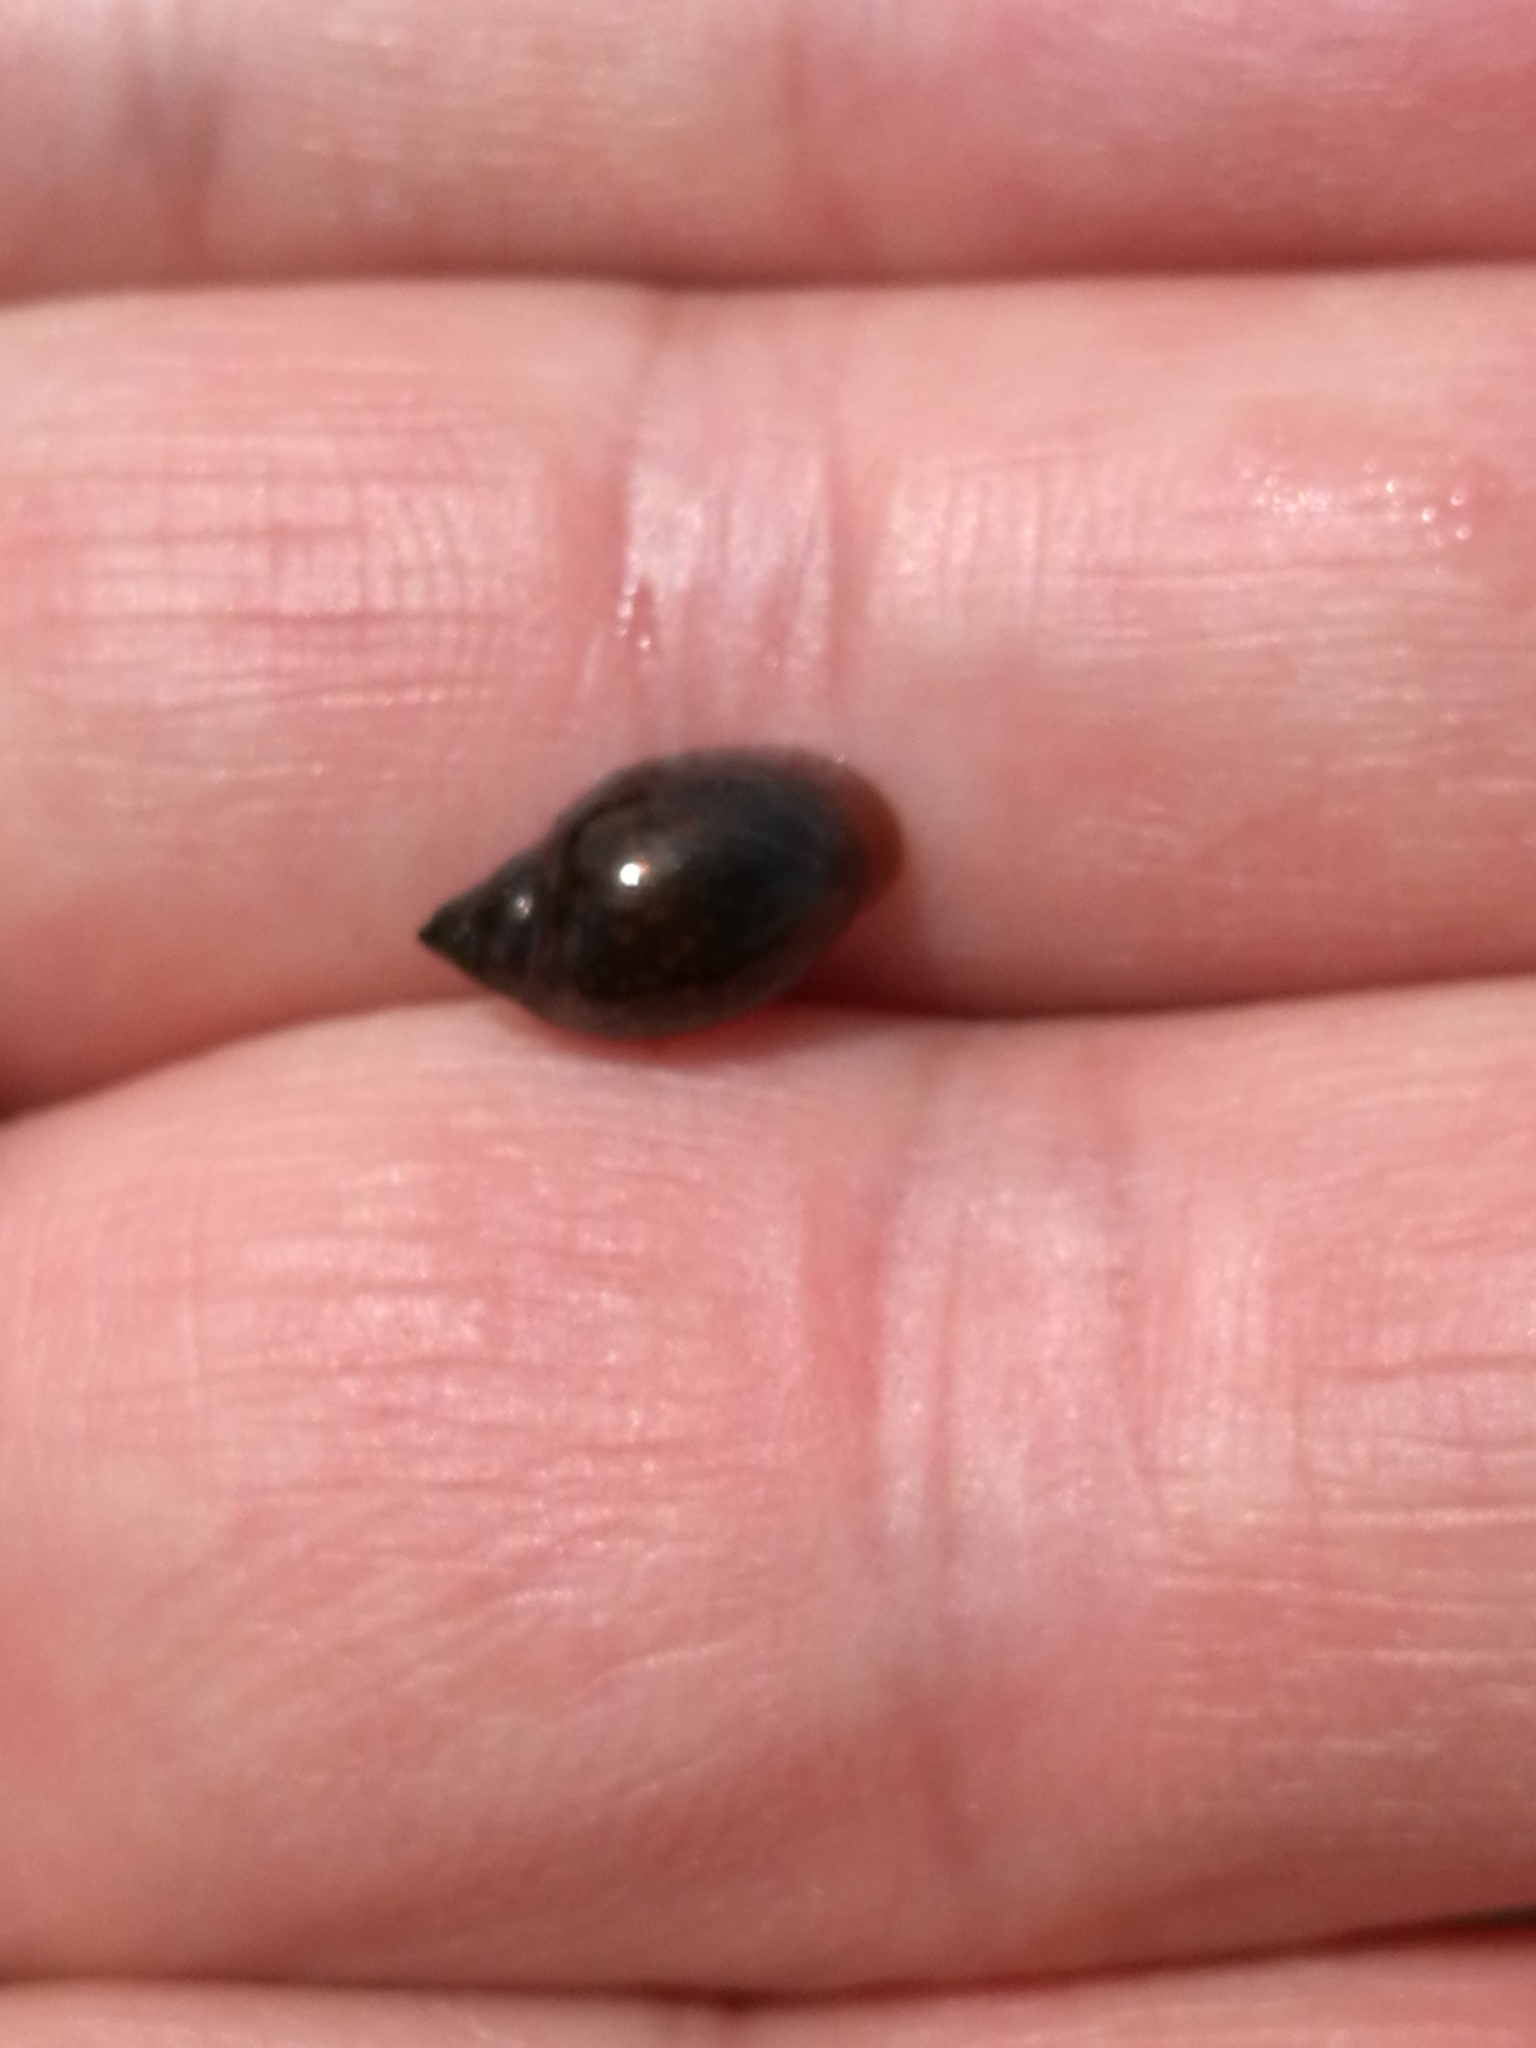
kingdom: Animalia
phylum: Mollusca
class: Gastropoda
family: Physidae
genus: Physella
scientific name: Physella acuta
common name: European physa
